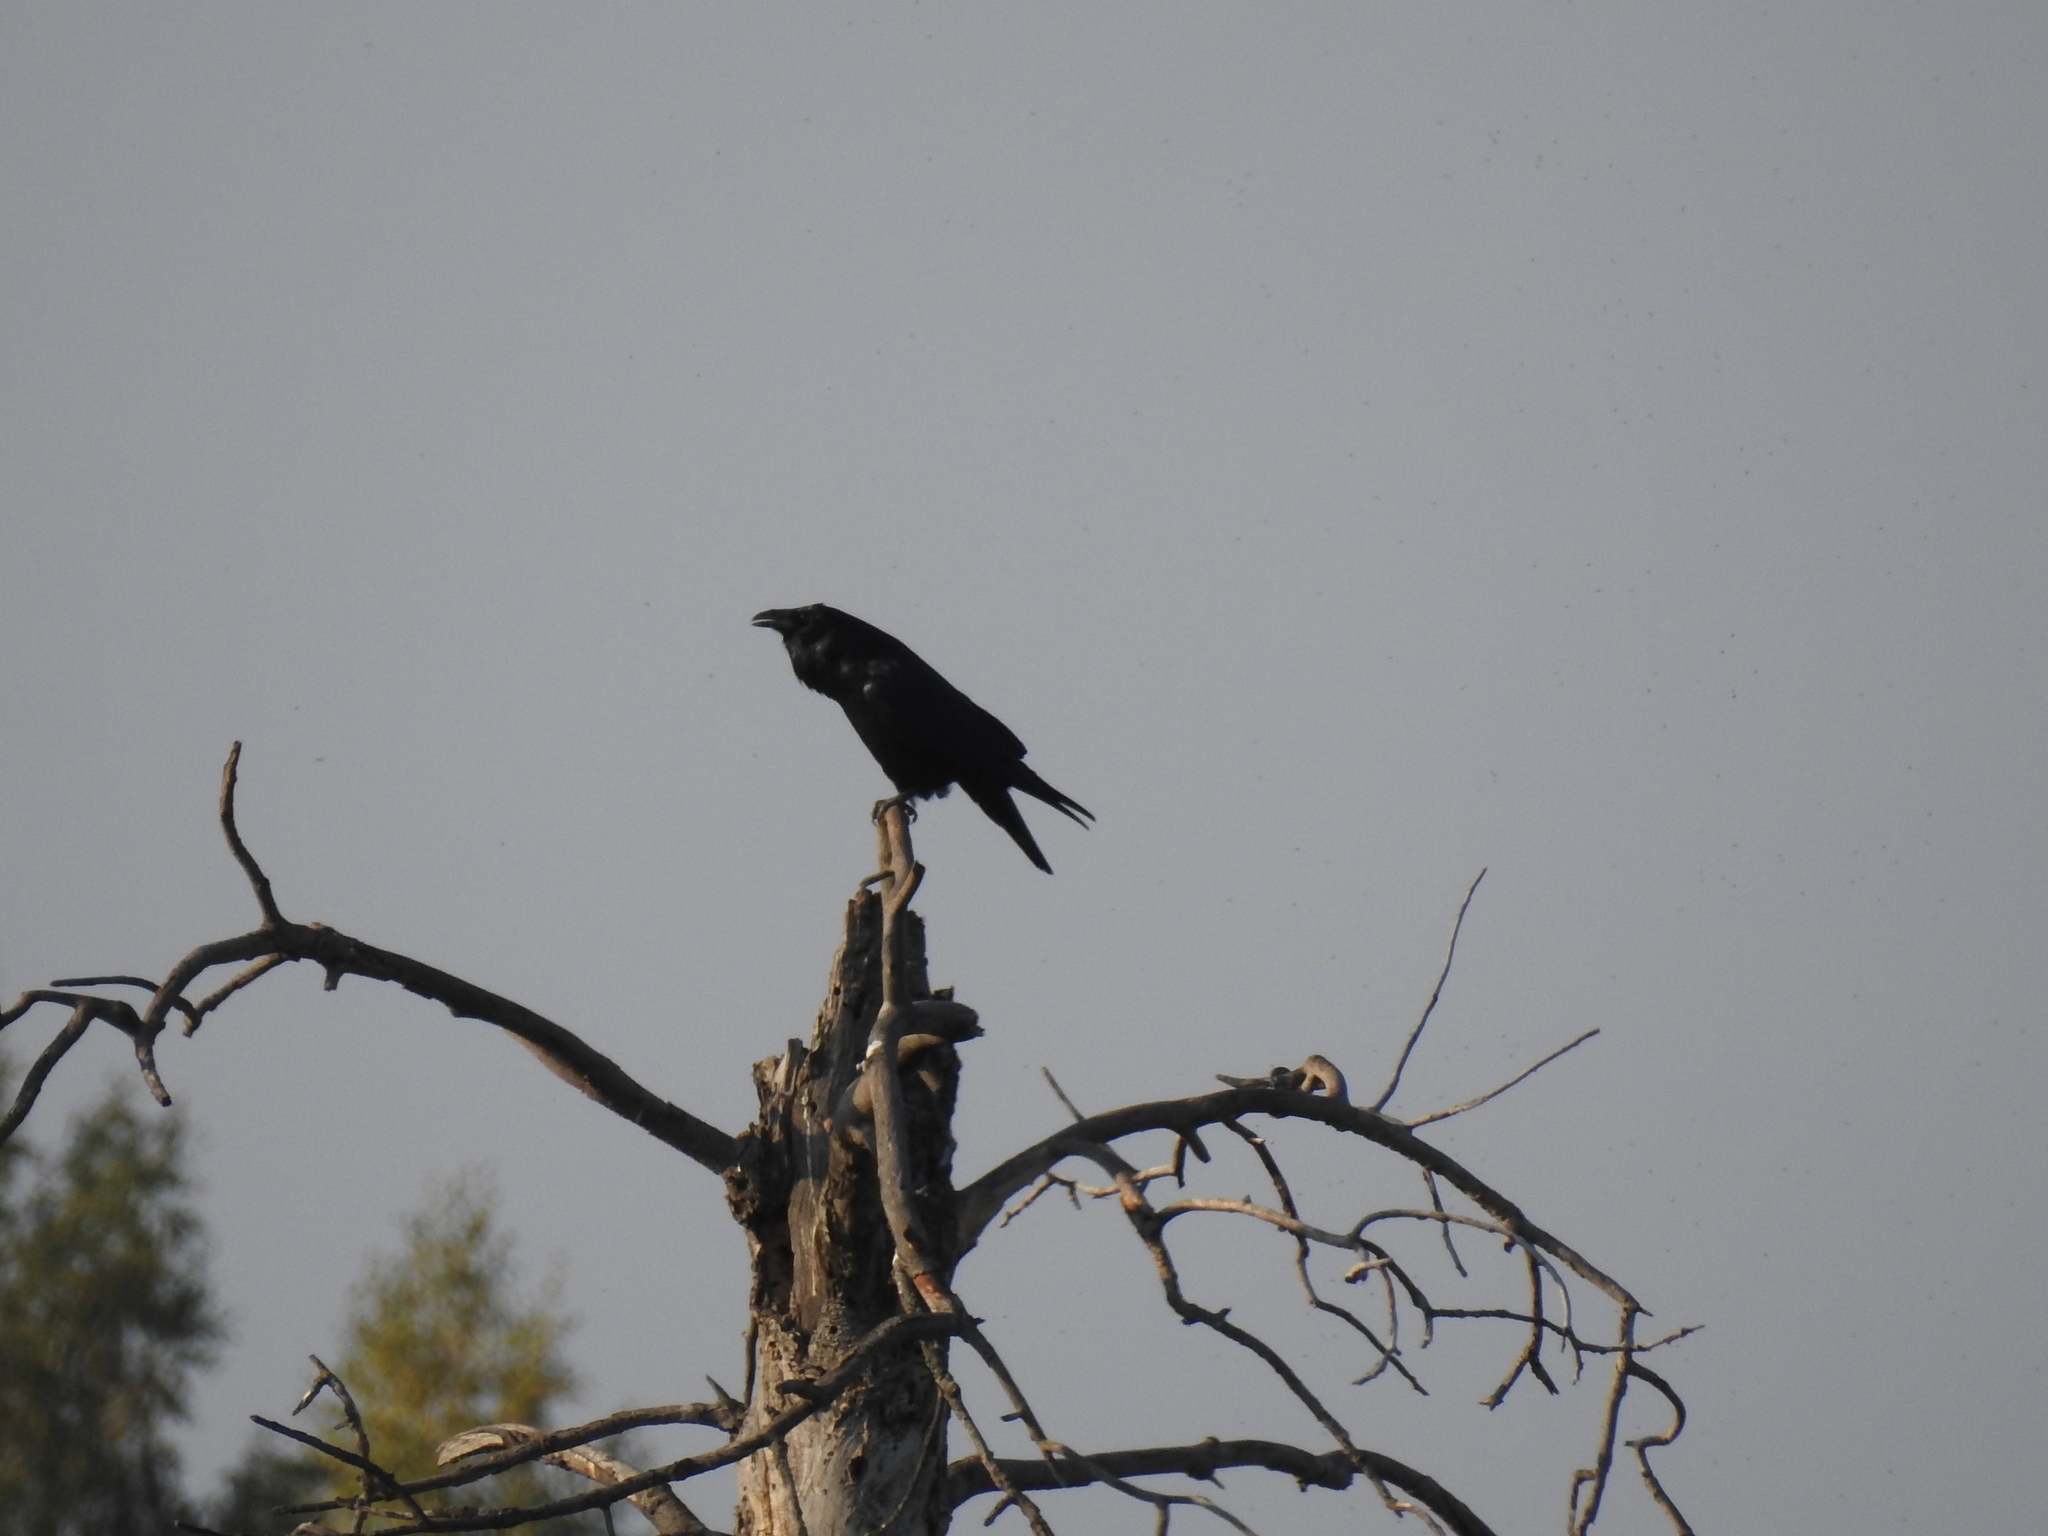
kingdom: Animalia
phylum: Chordata
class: Aves
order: Passeriformes
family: Corvidae
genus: Corvus
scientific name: Corvus corax
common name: Common raven
